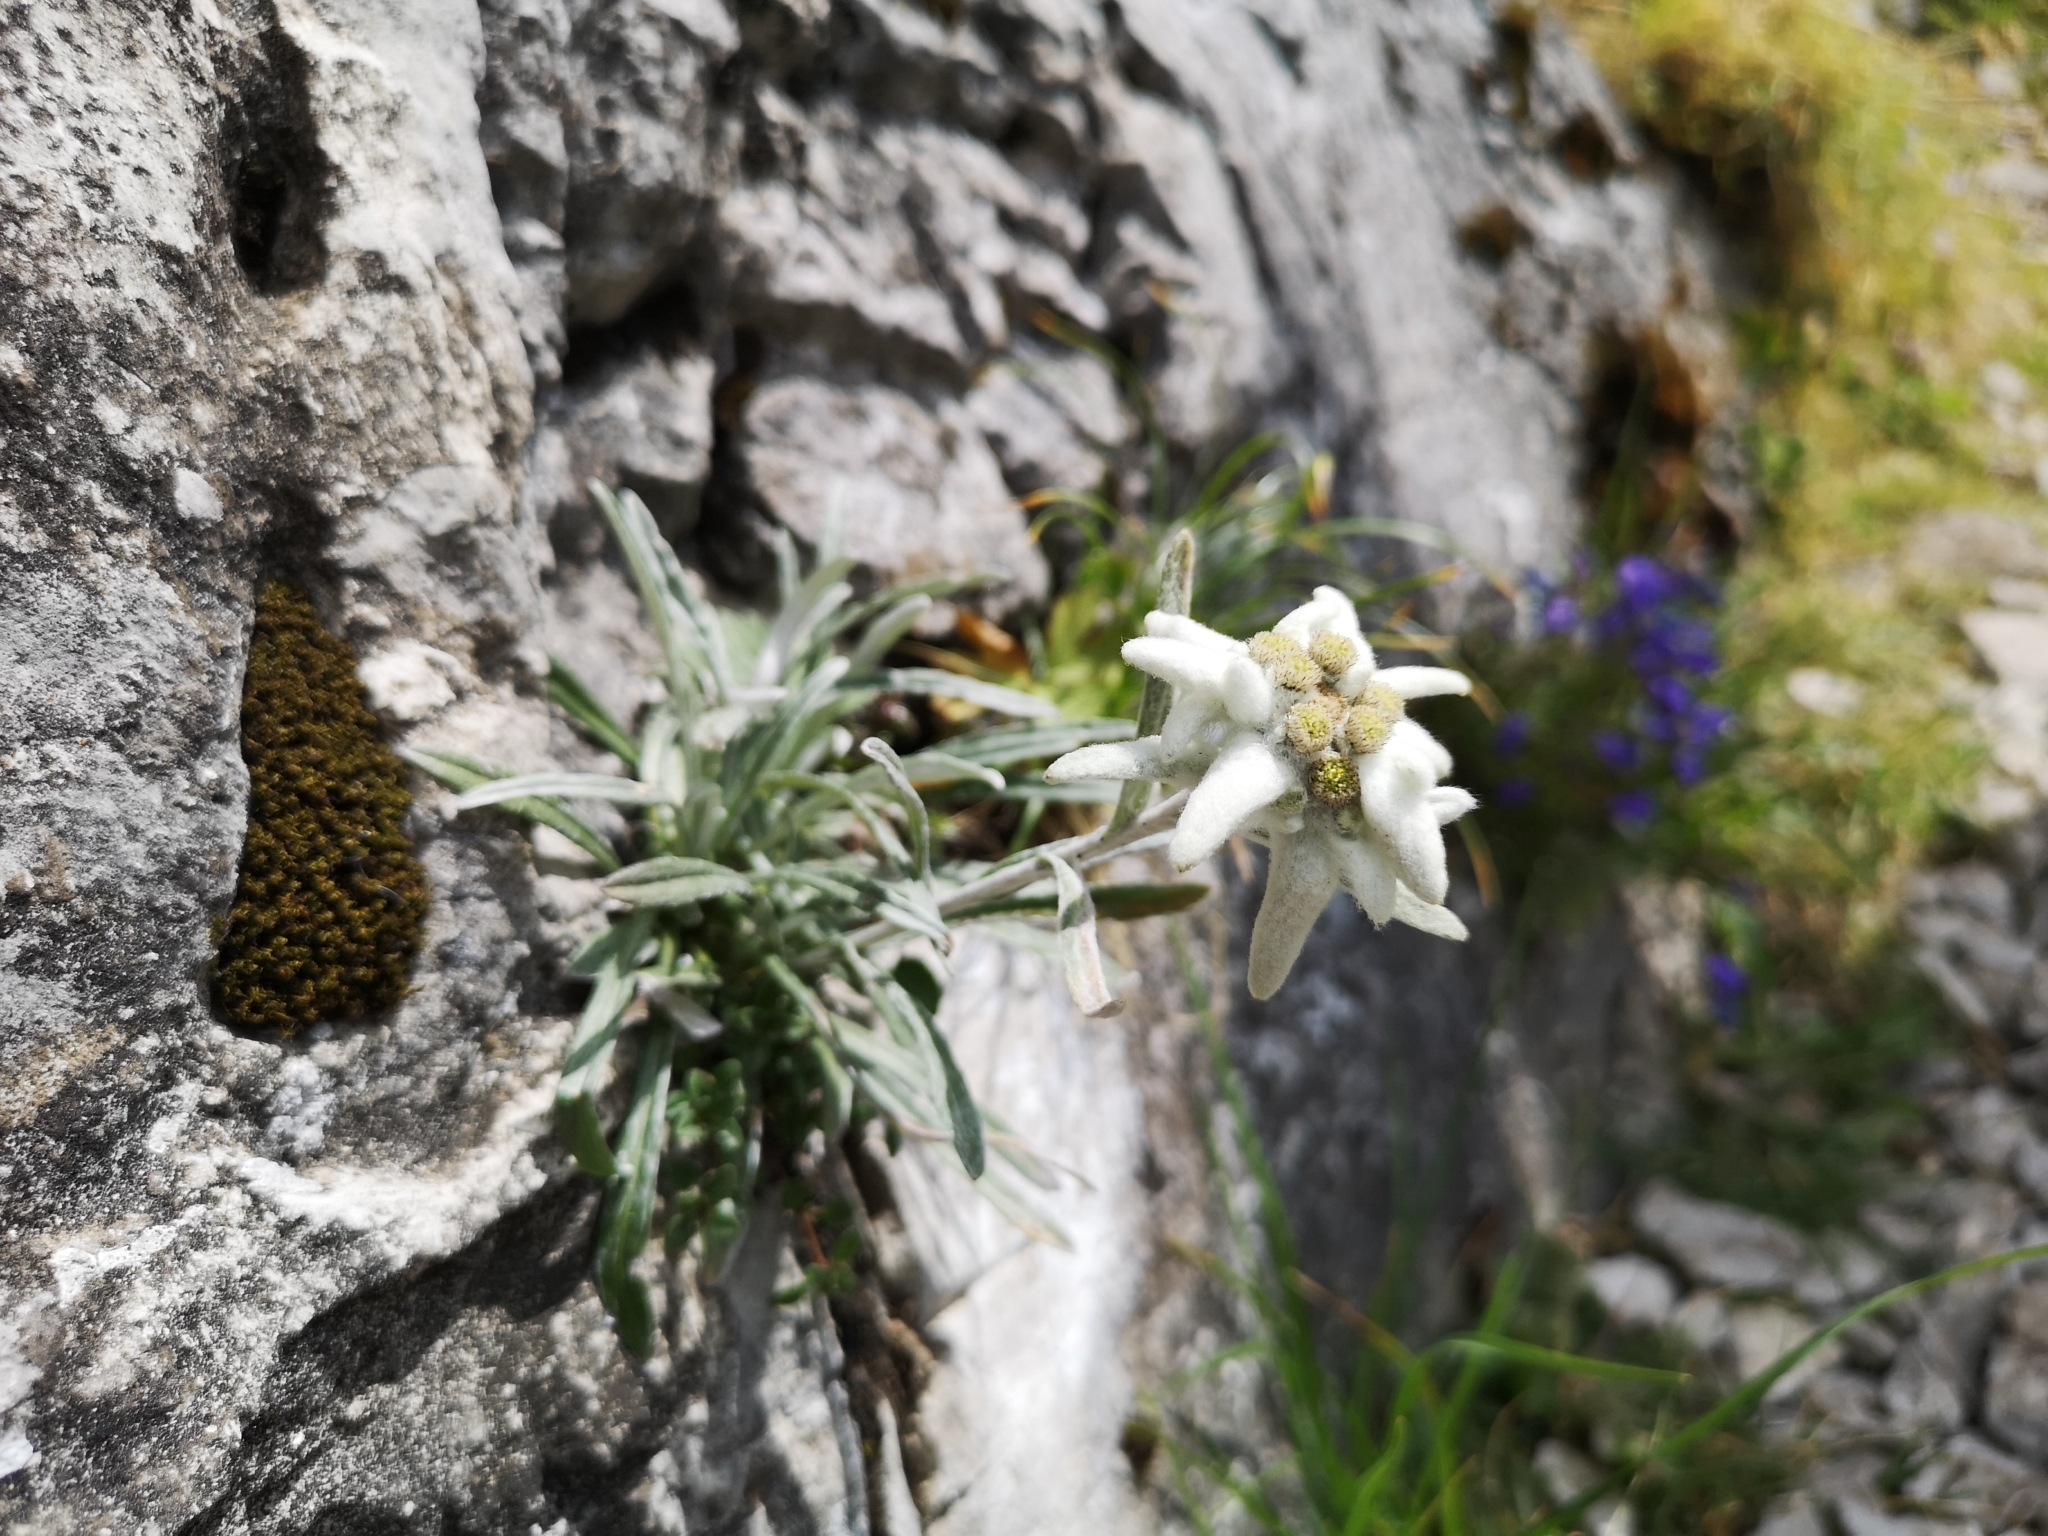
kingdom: Plantae
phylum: Tracheophyta
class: Magnoliopsida
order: Asterales
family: Asteraceae
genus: Leontopodium
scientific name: Leontopodium nivale
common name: Edelweiss
